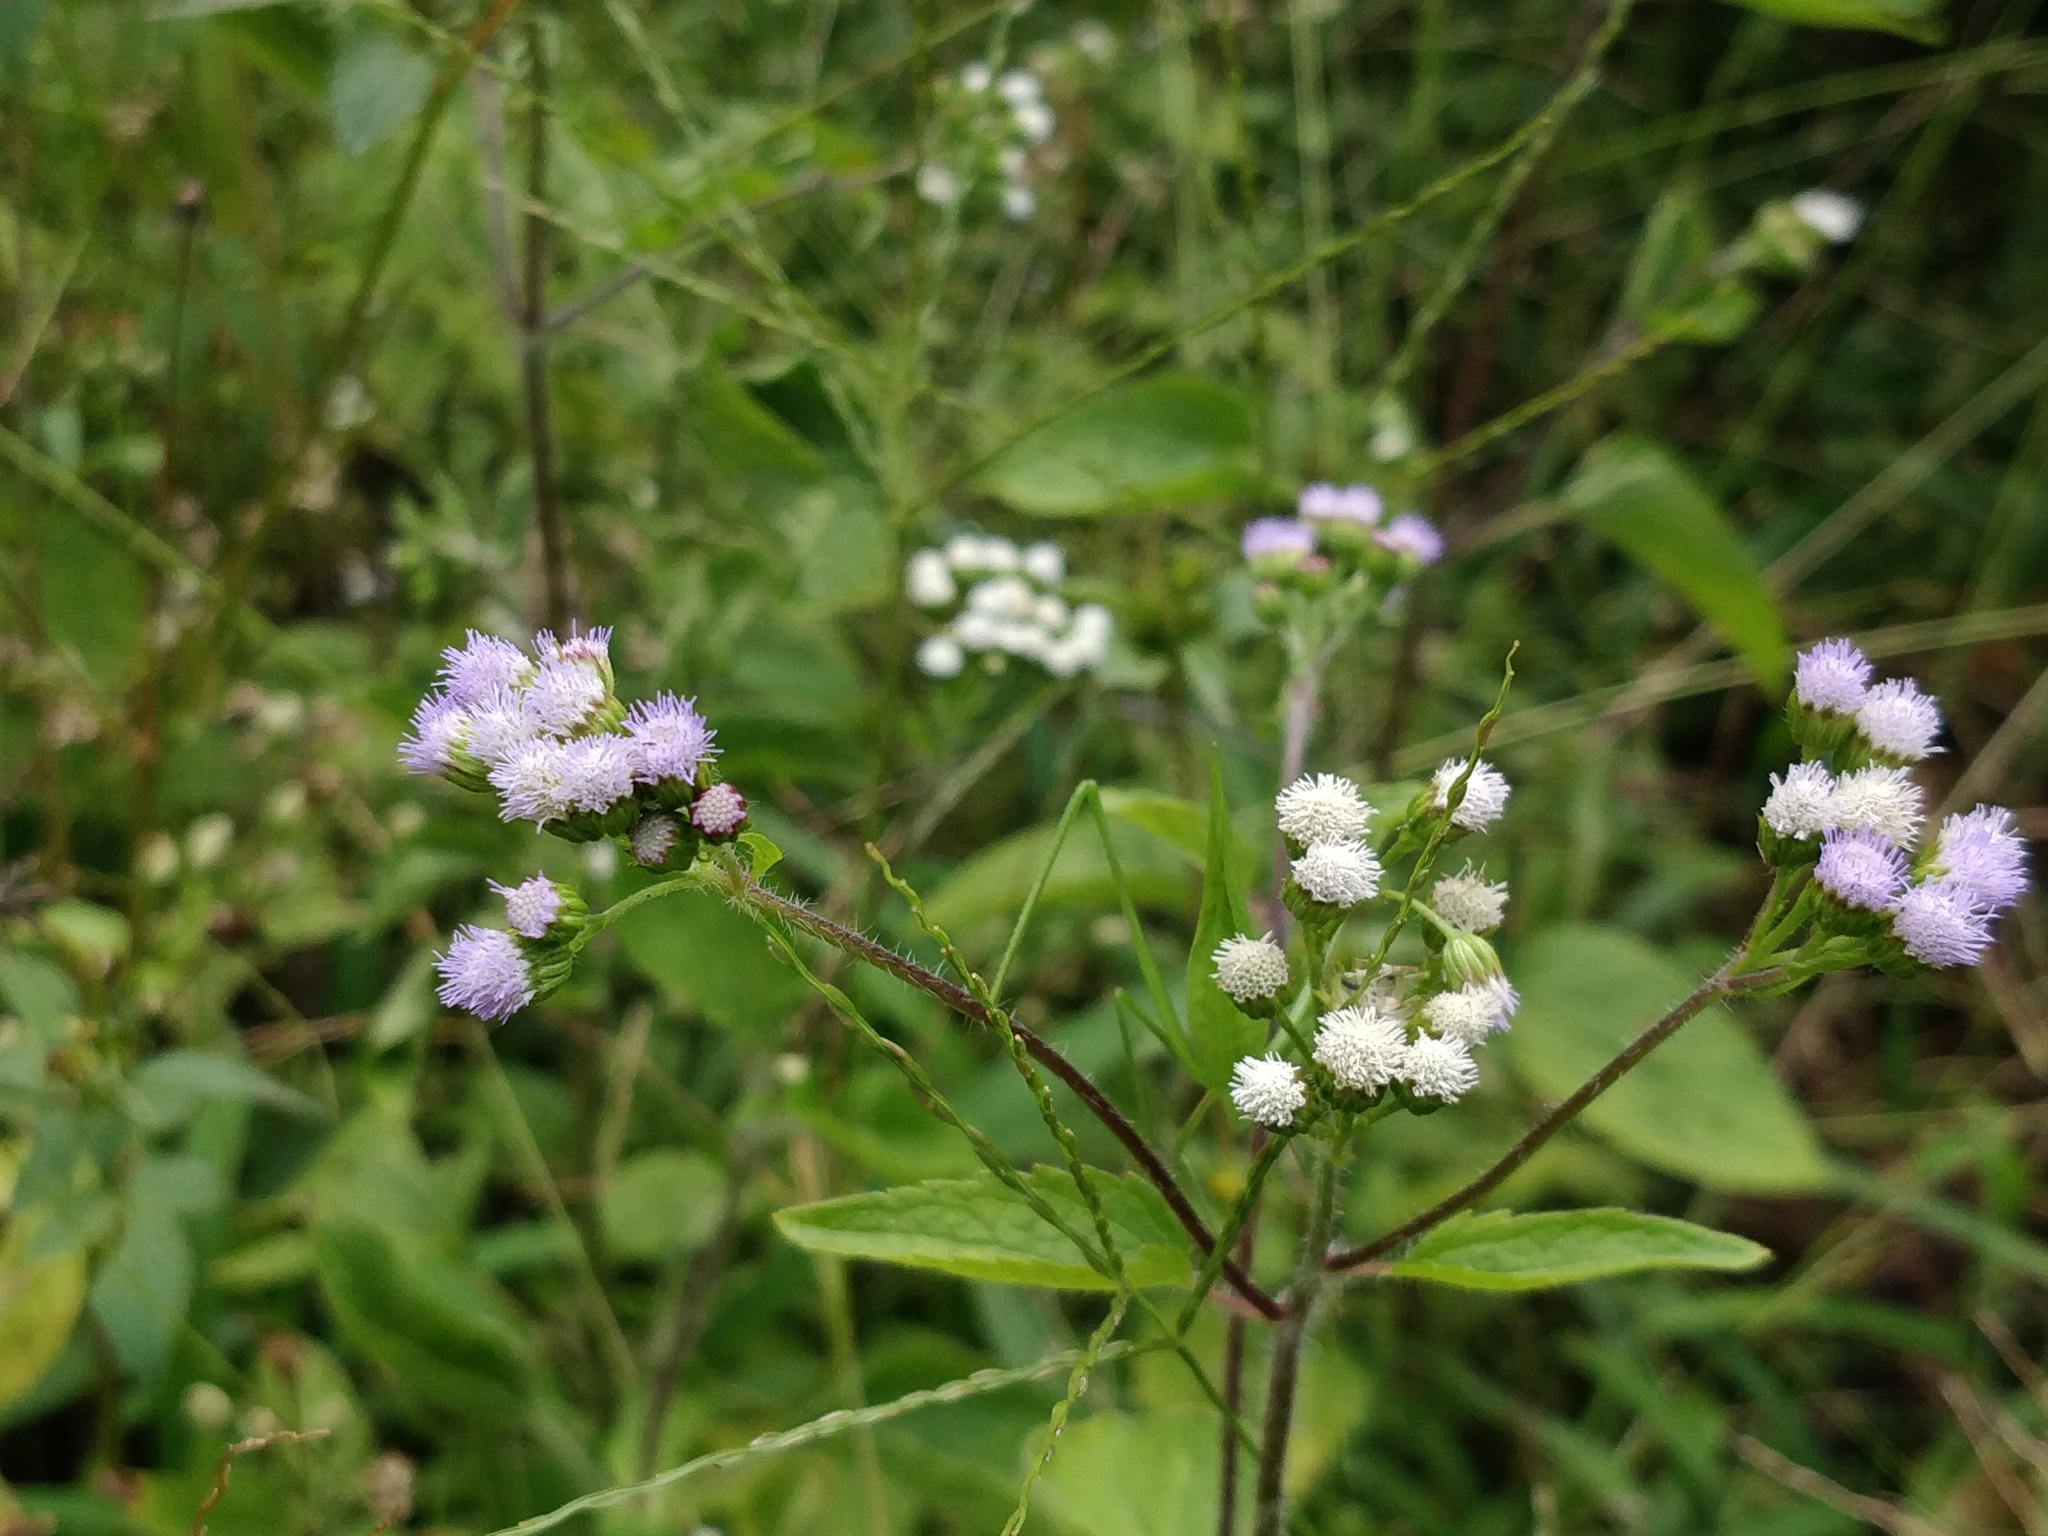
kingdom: Plantae
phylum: Tracheophyta
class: Magnoliopsida
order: Asterales
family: Asteraceae
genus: Ageratum
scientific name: Ageratum conyzoides
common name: Tropical whiteweed
